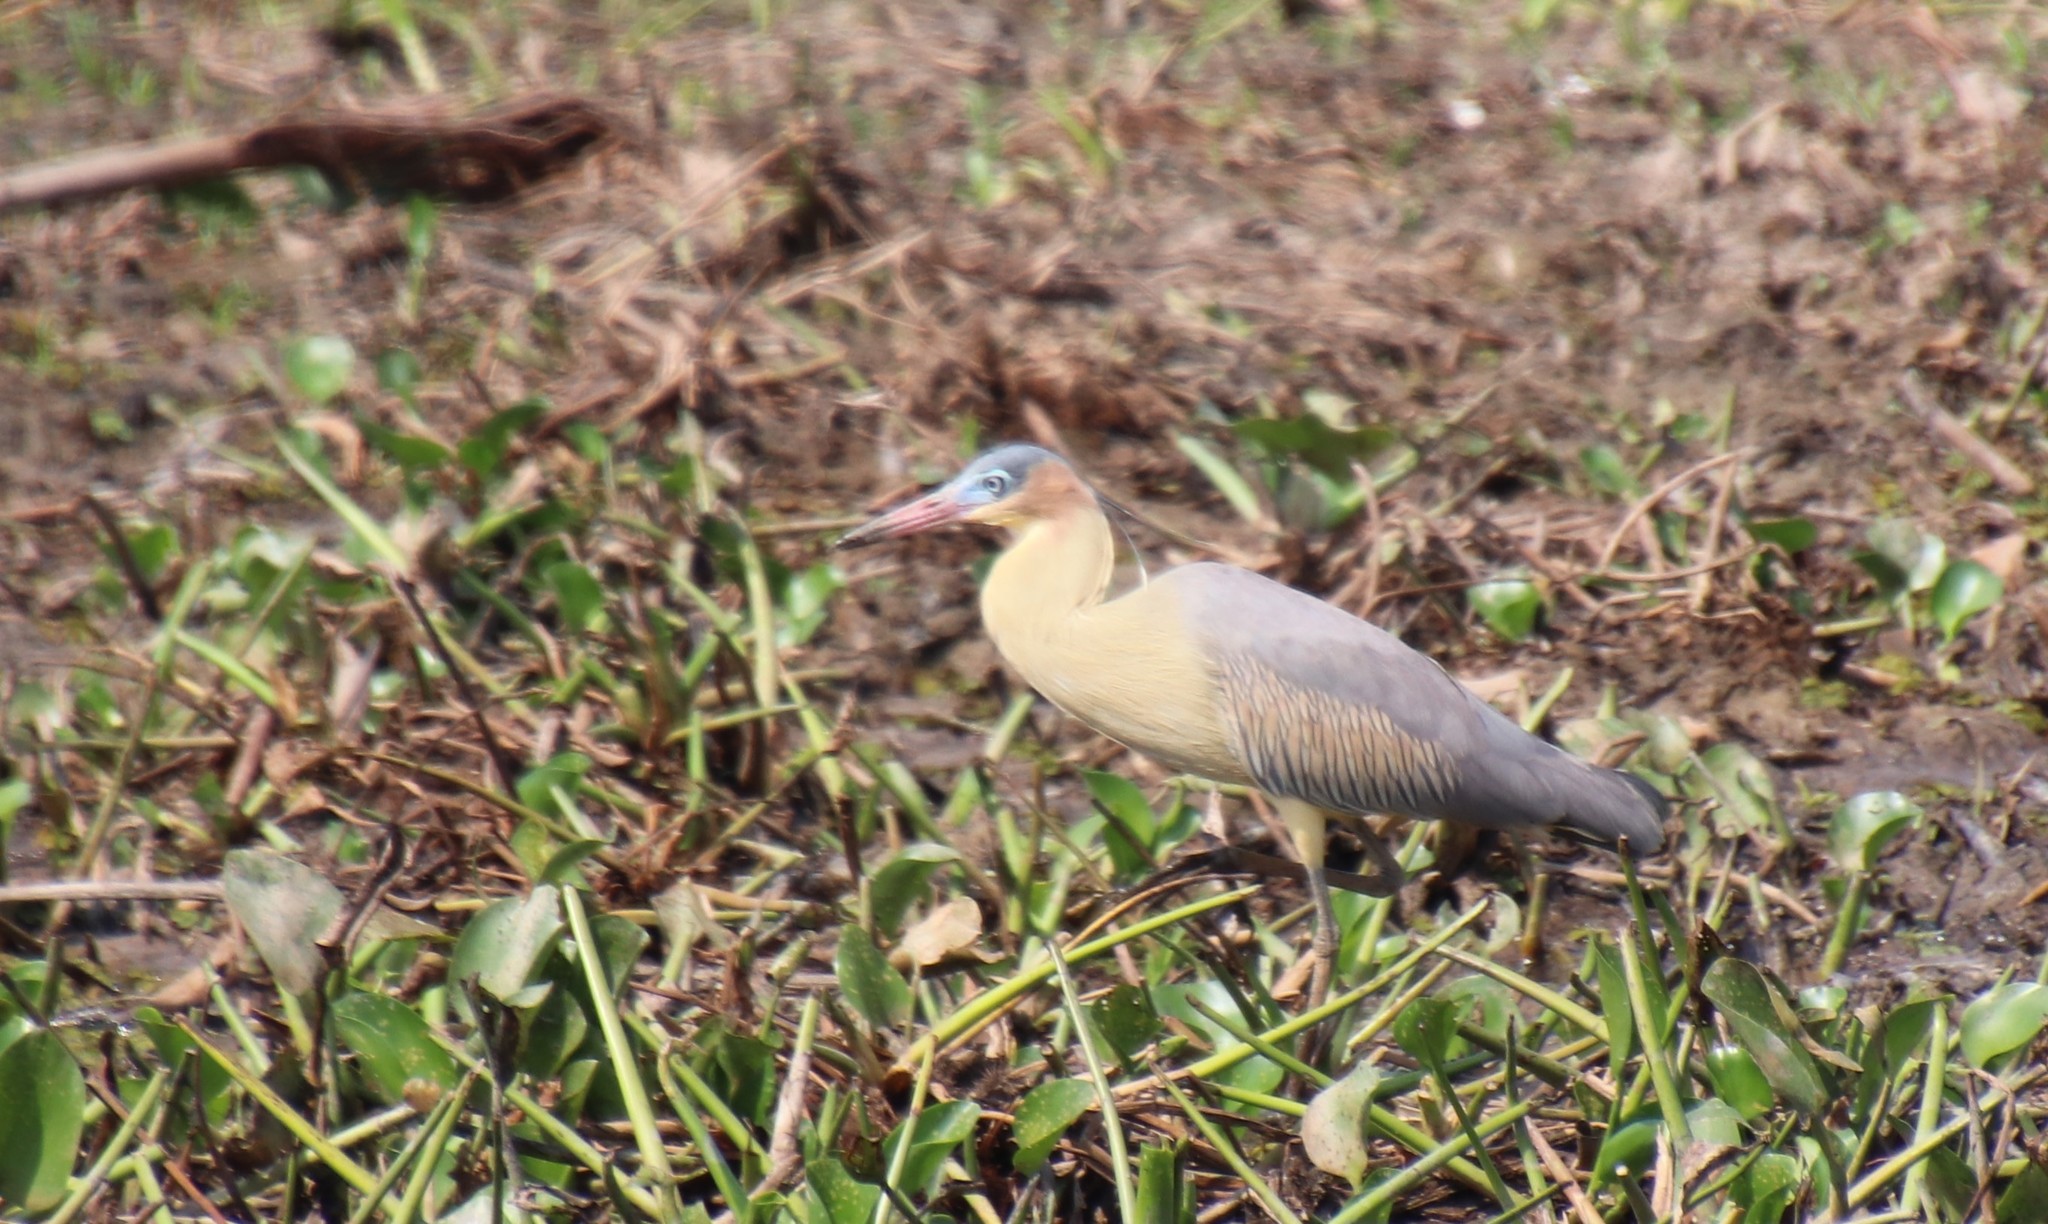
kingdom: Animalia
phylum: Chordata
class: Aves
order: Pelecaniformes
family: Ardeidae
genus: Syrigma
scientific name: Syrigma sibilatrix
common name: Whistling heron
